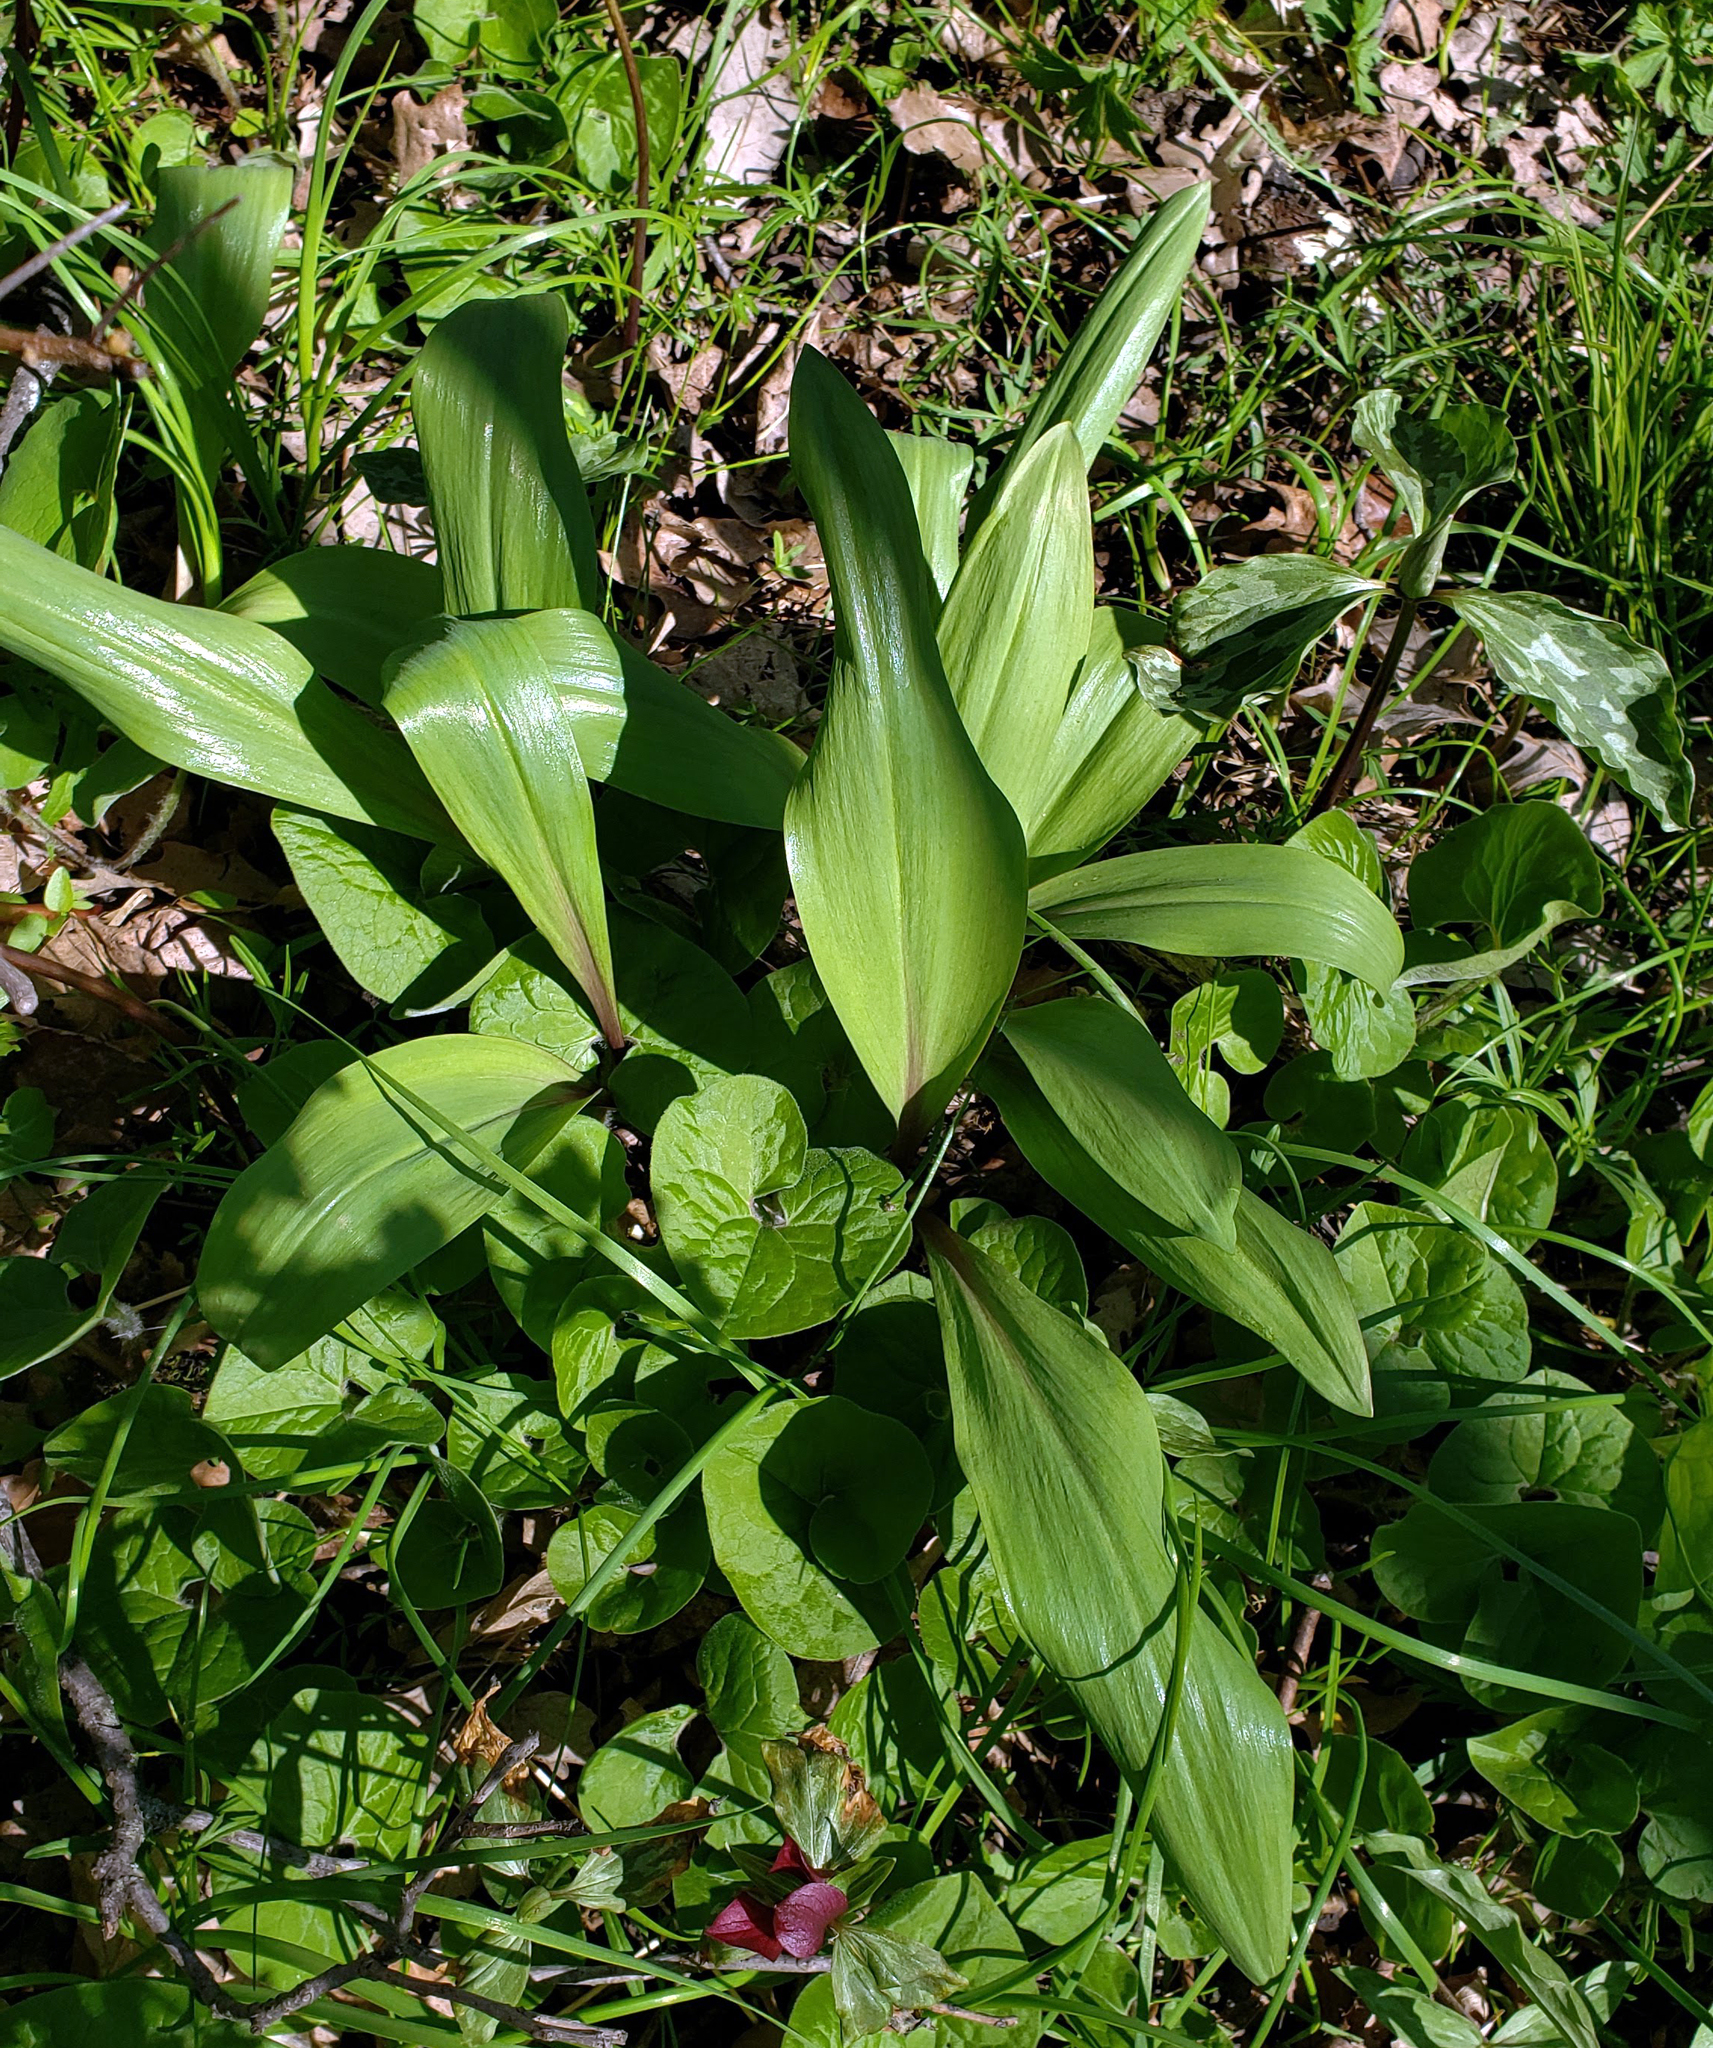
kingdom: Plantae
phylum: Tracheophyta
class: Liliopsida
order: Asparagales
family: Amaryllidaceae
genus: Allium
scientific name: Allium tricoccum
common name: Ramp
